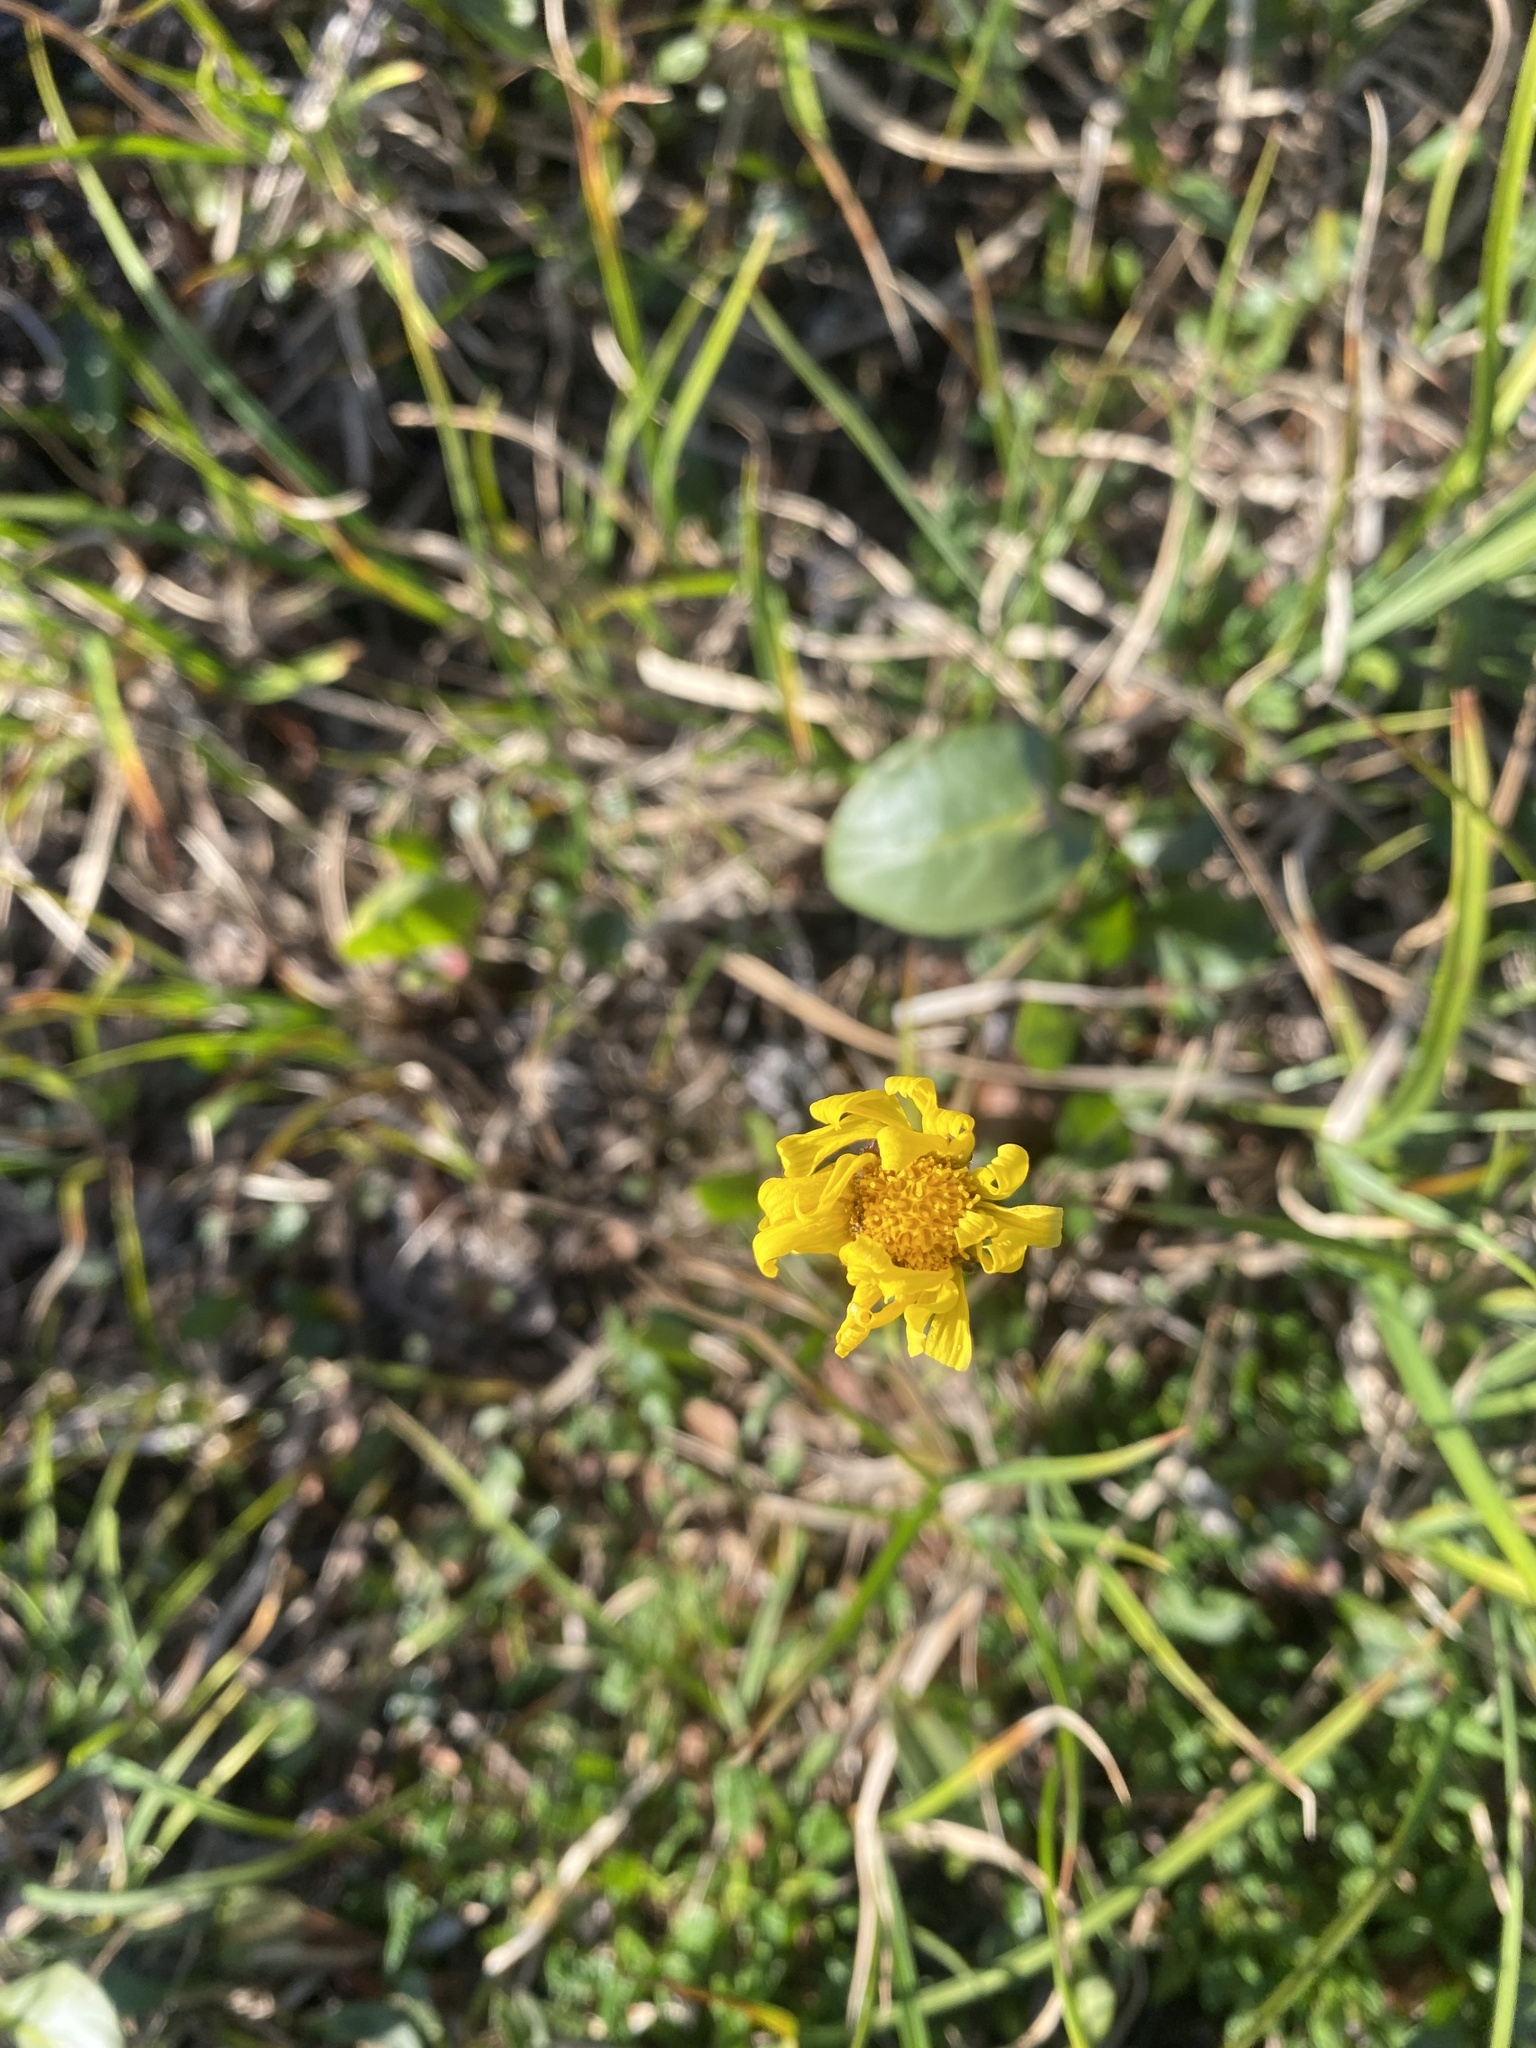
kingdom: Plantae
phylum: Tracheophyta
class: Magnoliopsida
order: Asterales
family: Asteraceae
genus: Tephroseris
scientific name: Tephroseris integrifolia
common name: Field fleawort
